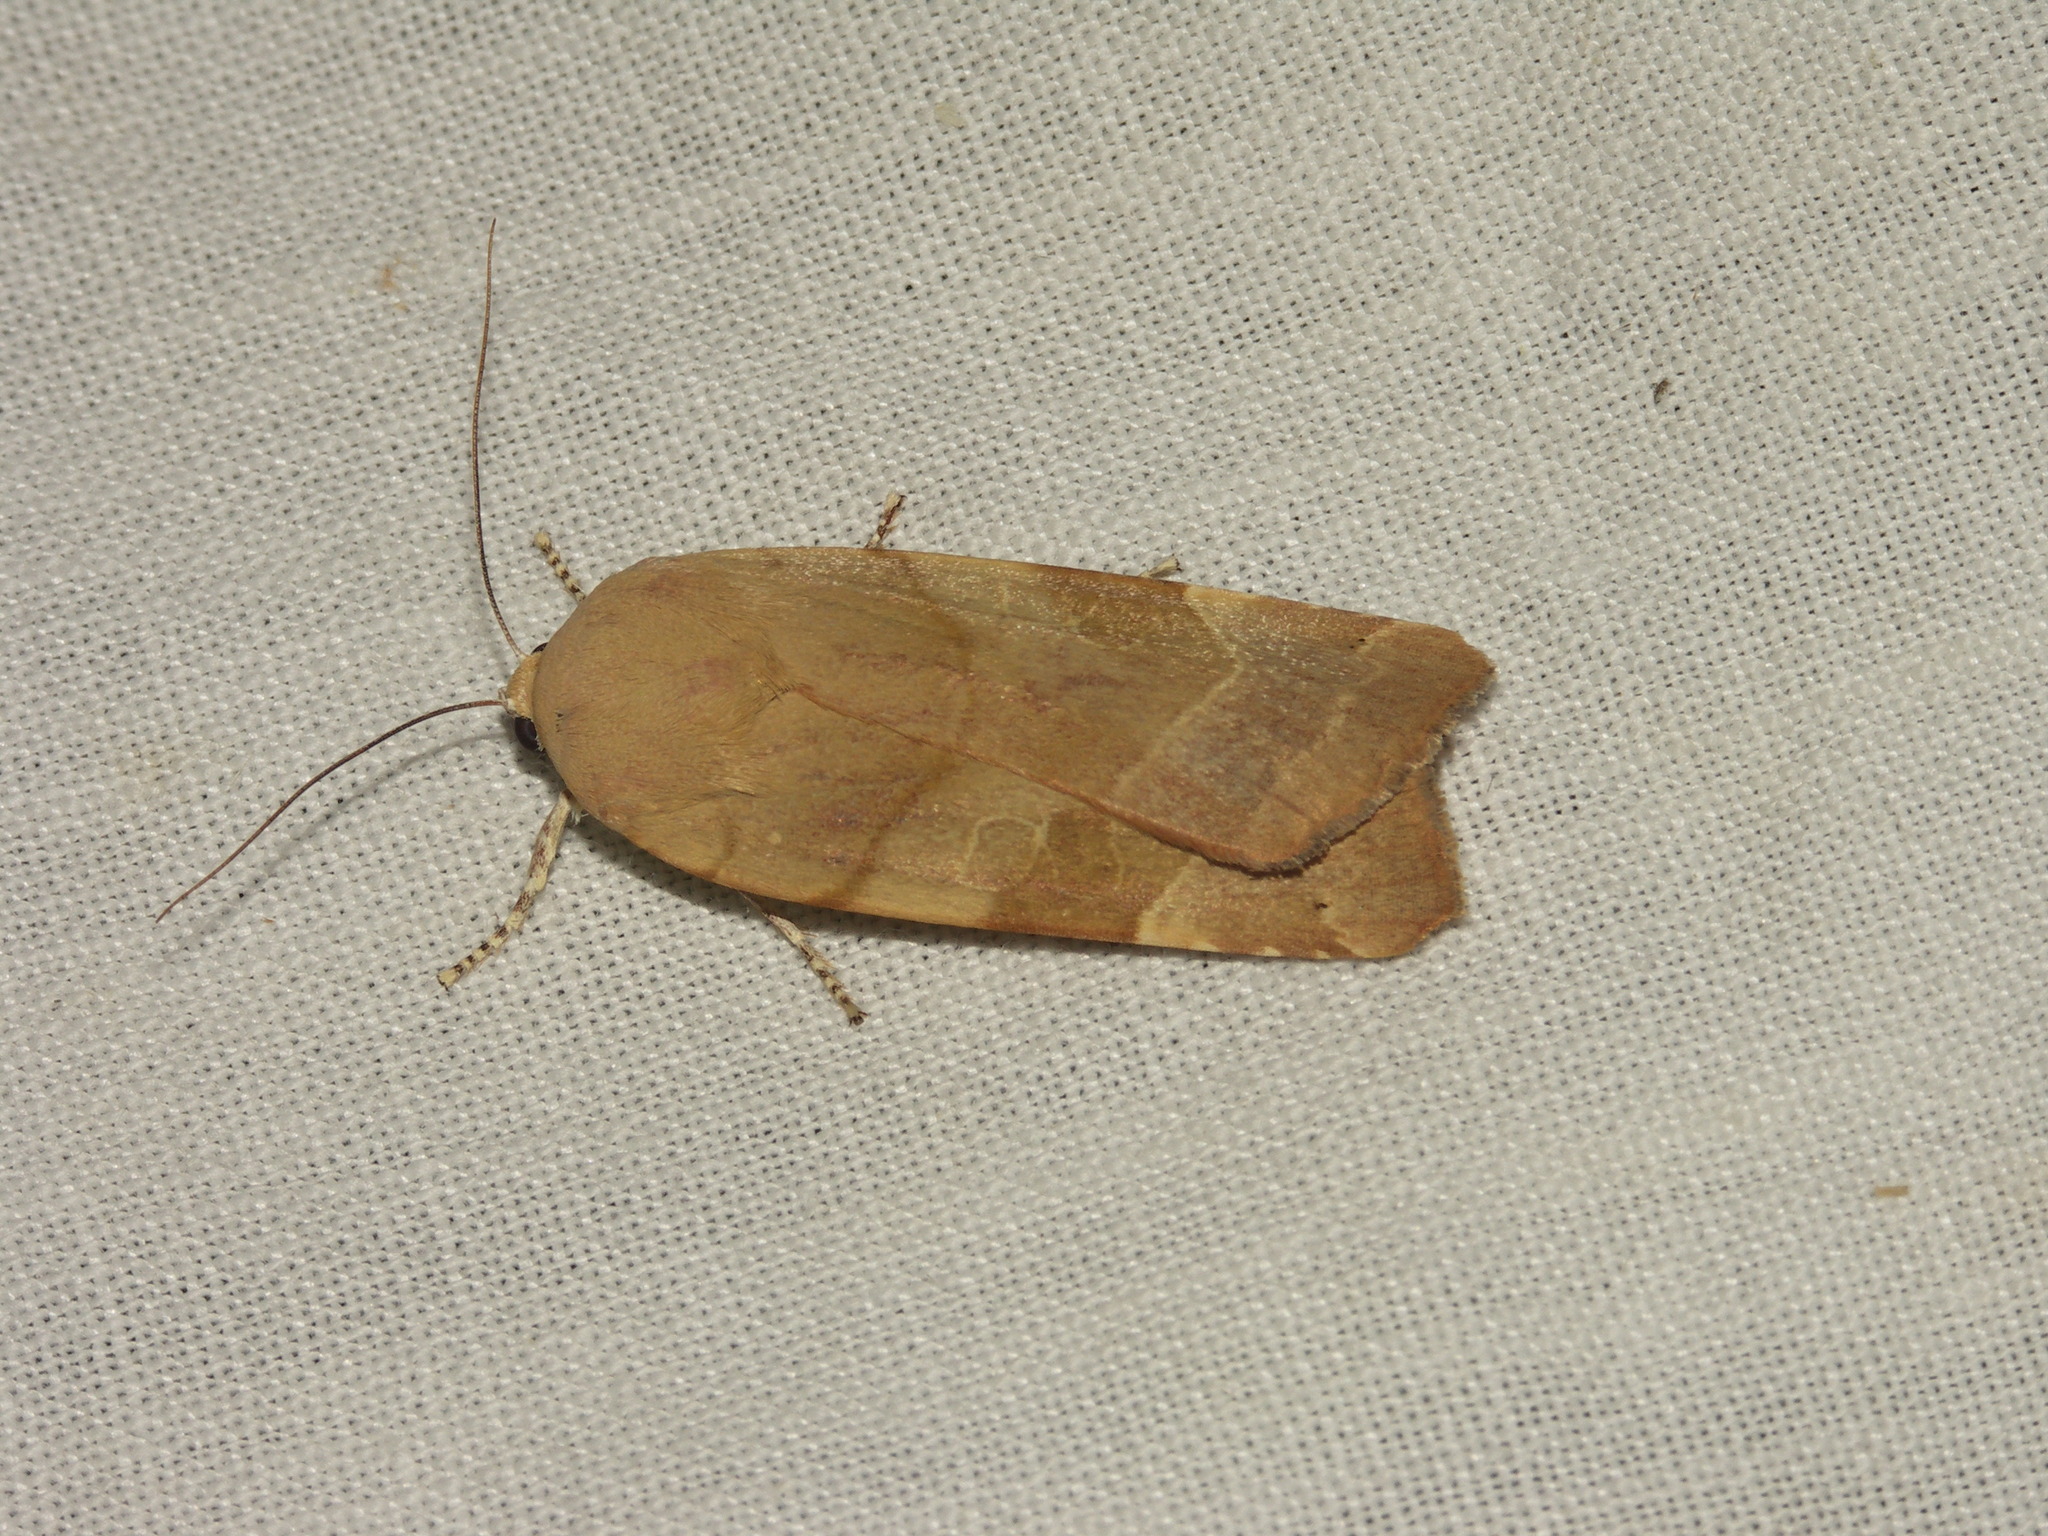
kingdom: Animalia
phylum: Arthropoda
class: Insecta
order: Lepidoptera
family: Noctuidae
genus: Noctua
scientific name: Noctua fimbriata
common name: Broad-bordered yellow underwing
